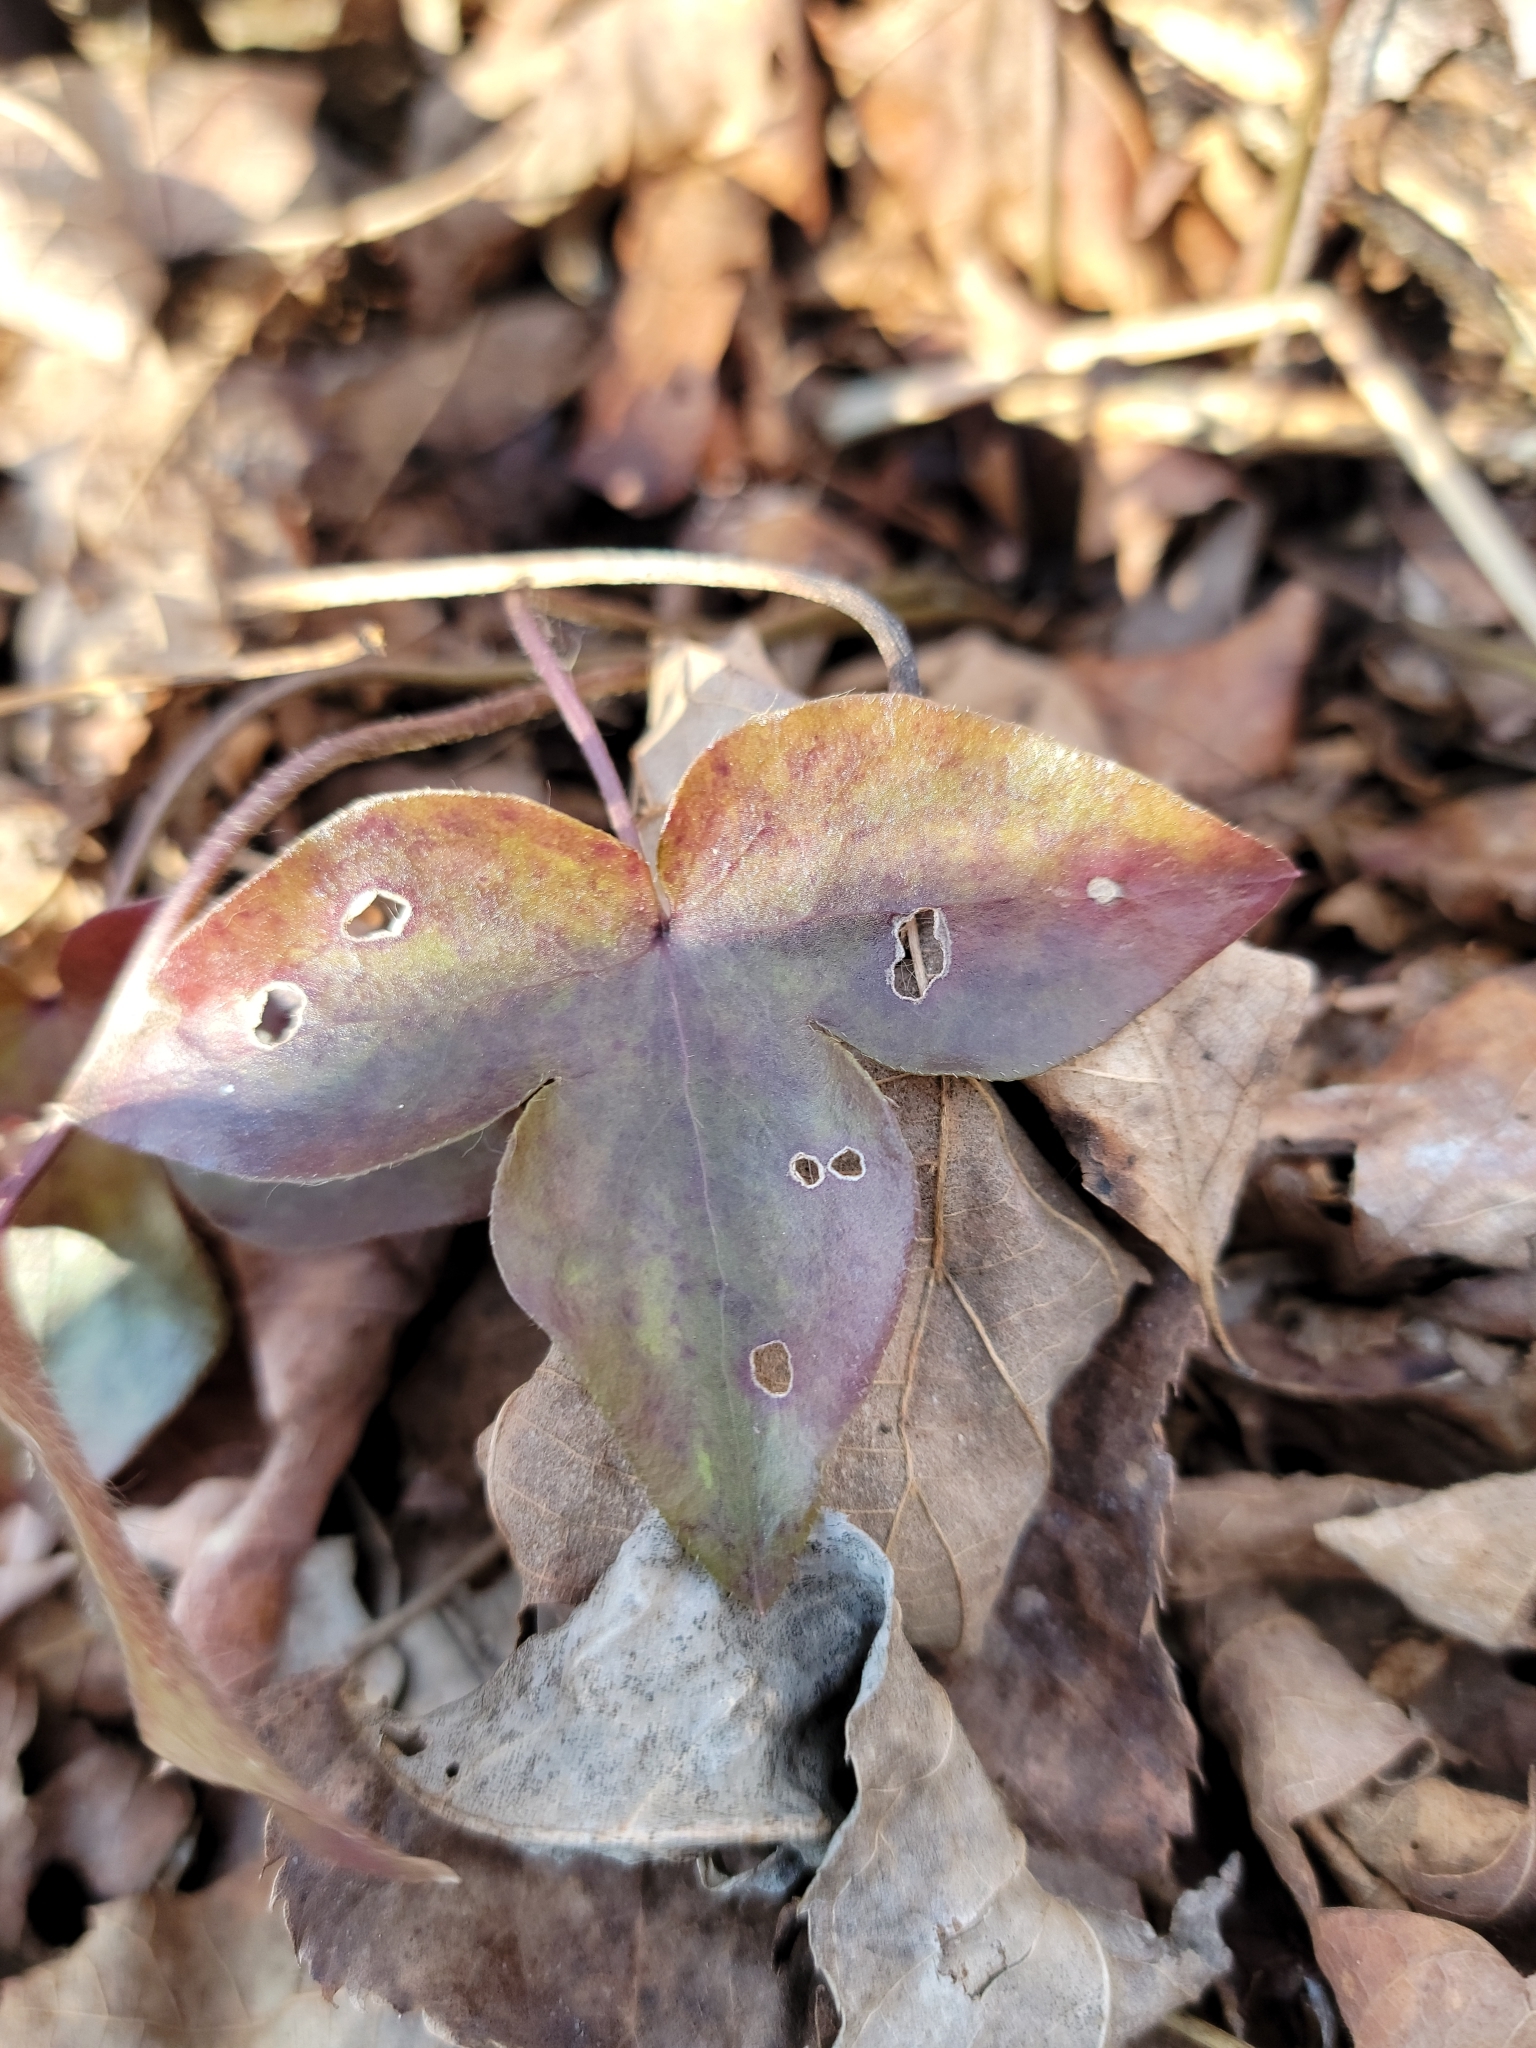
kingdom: Plantae
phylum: Tracheophyta
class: Magnoliopsida
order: Ranunculales
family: Ranunculaceae
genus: Hepatica
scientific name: Hepatica acutiloba
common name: Sharp-lobed hepatica
